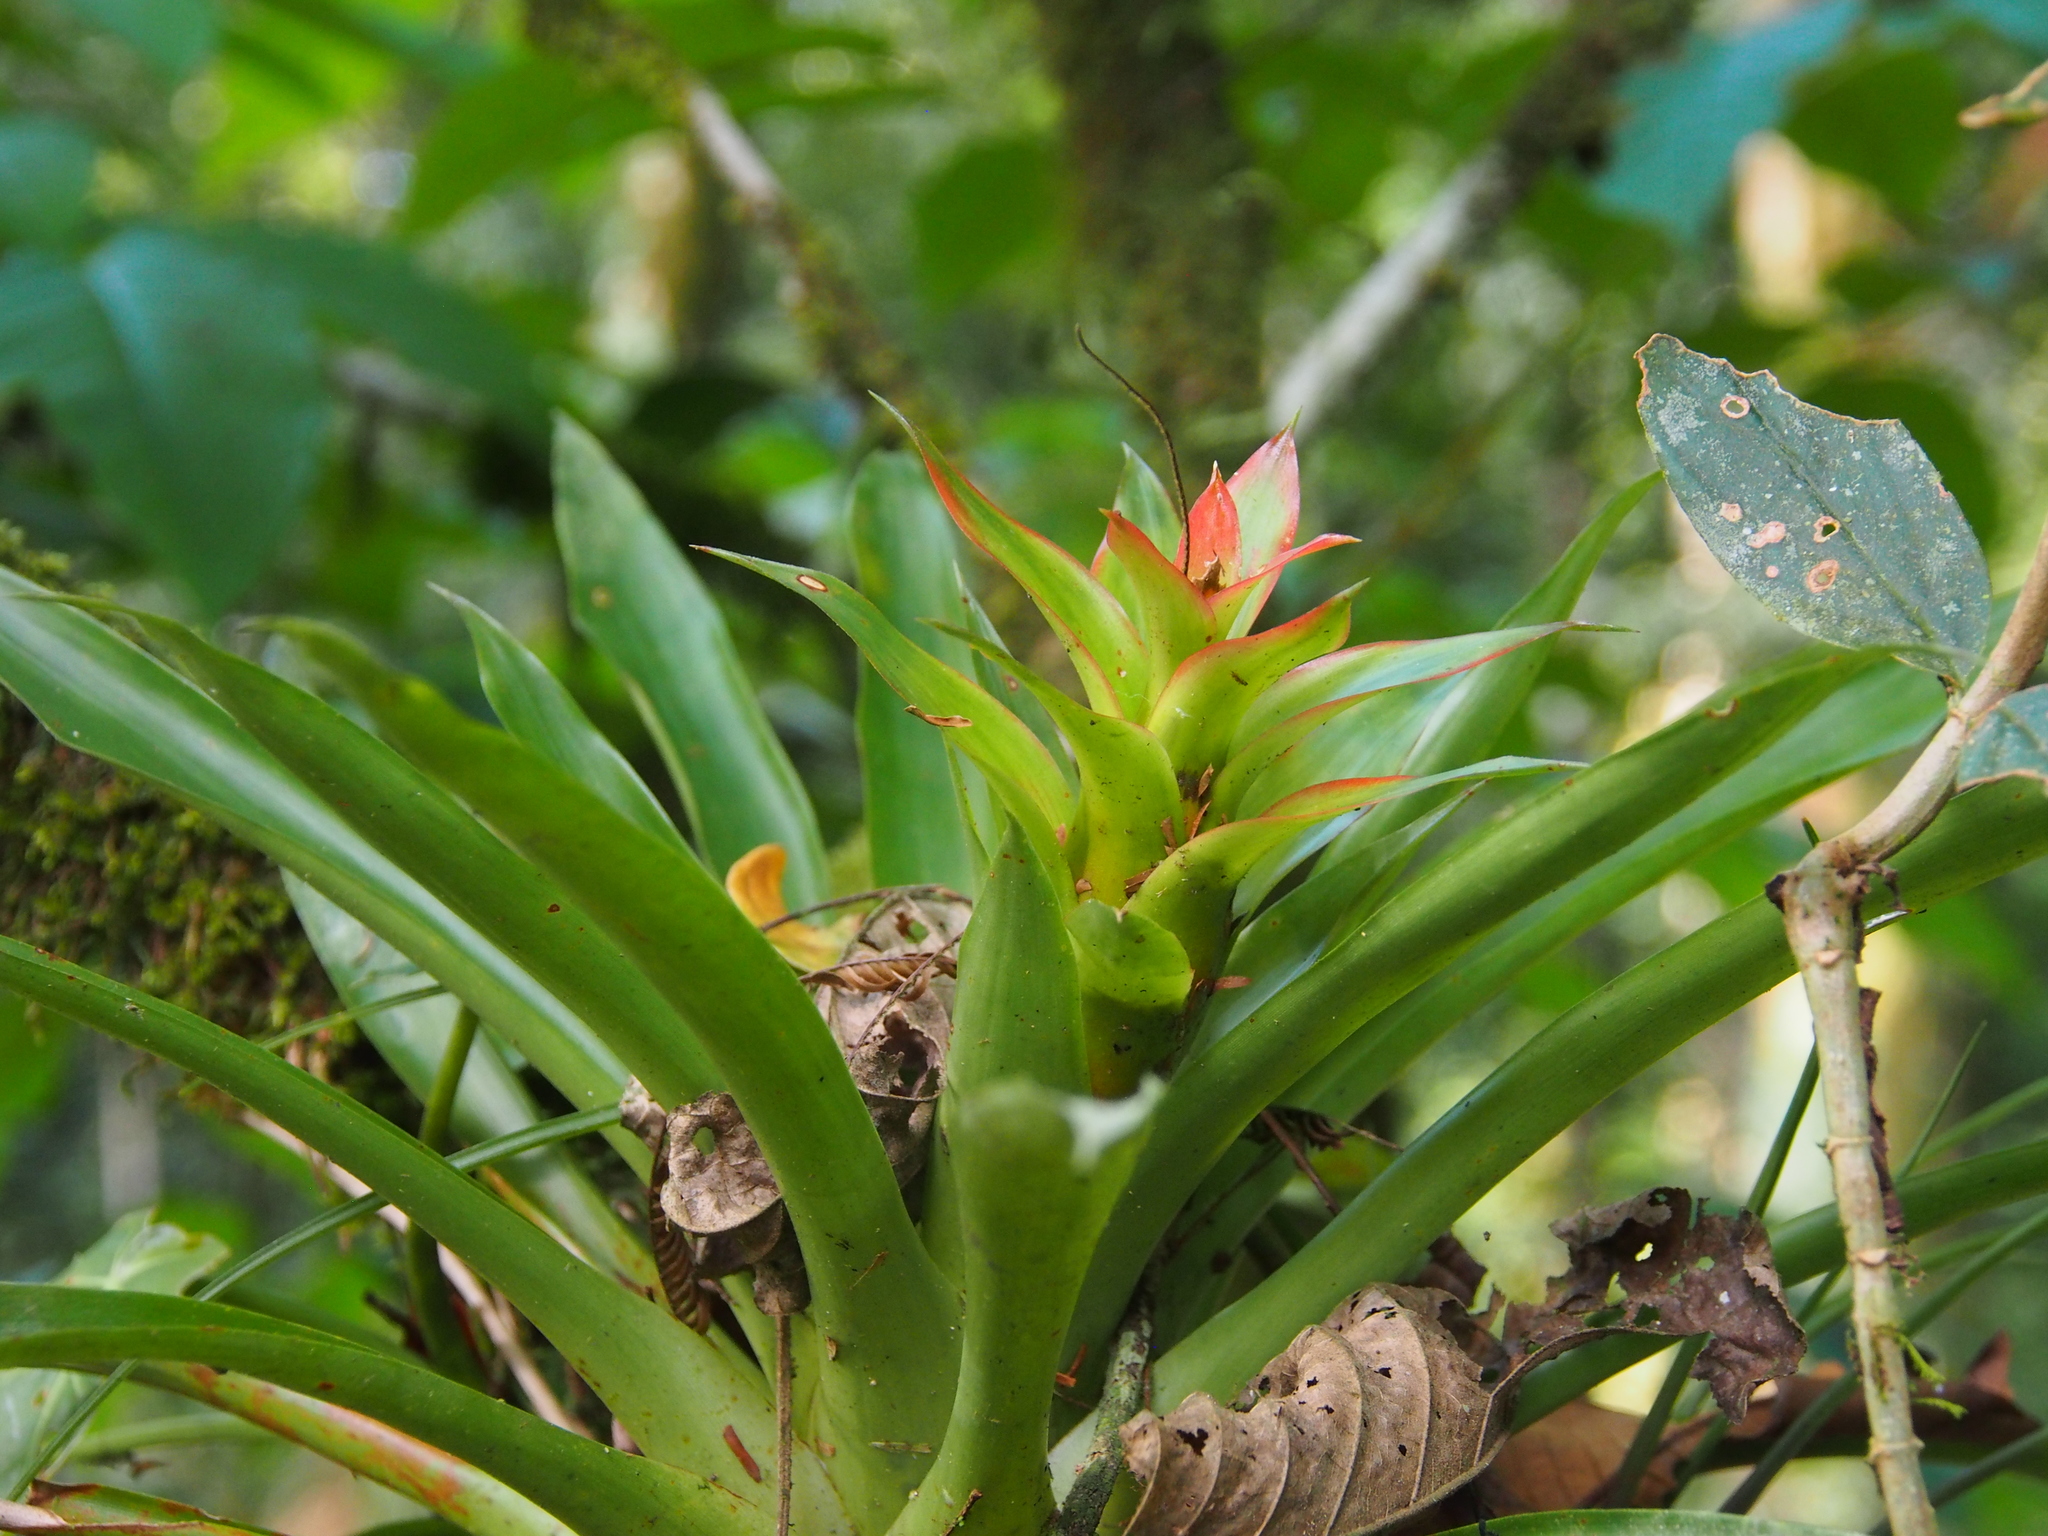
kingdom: Plantae
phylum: Tracheophyta
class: Liliopsida
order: Poales
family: Bromeliaceae
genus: Guzmania
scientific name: Guzmania lingulata
